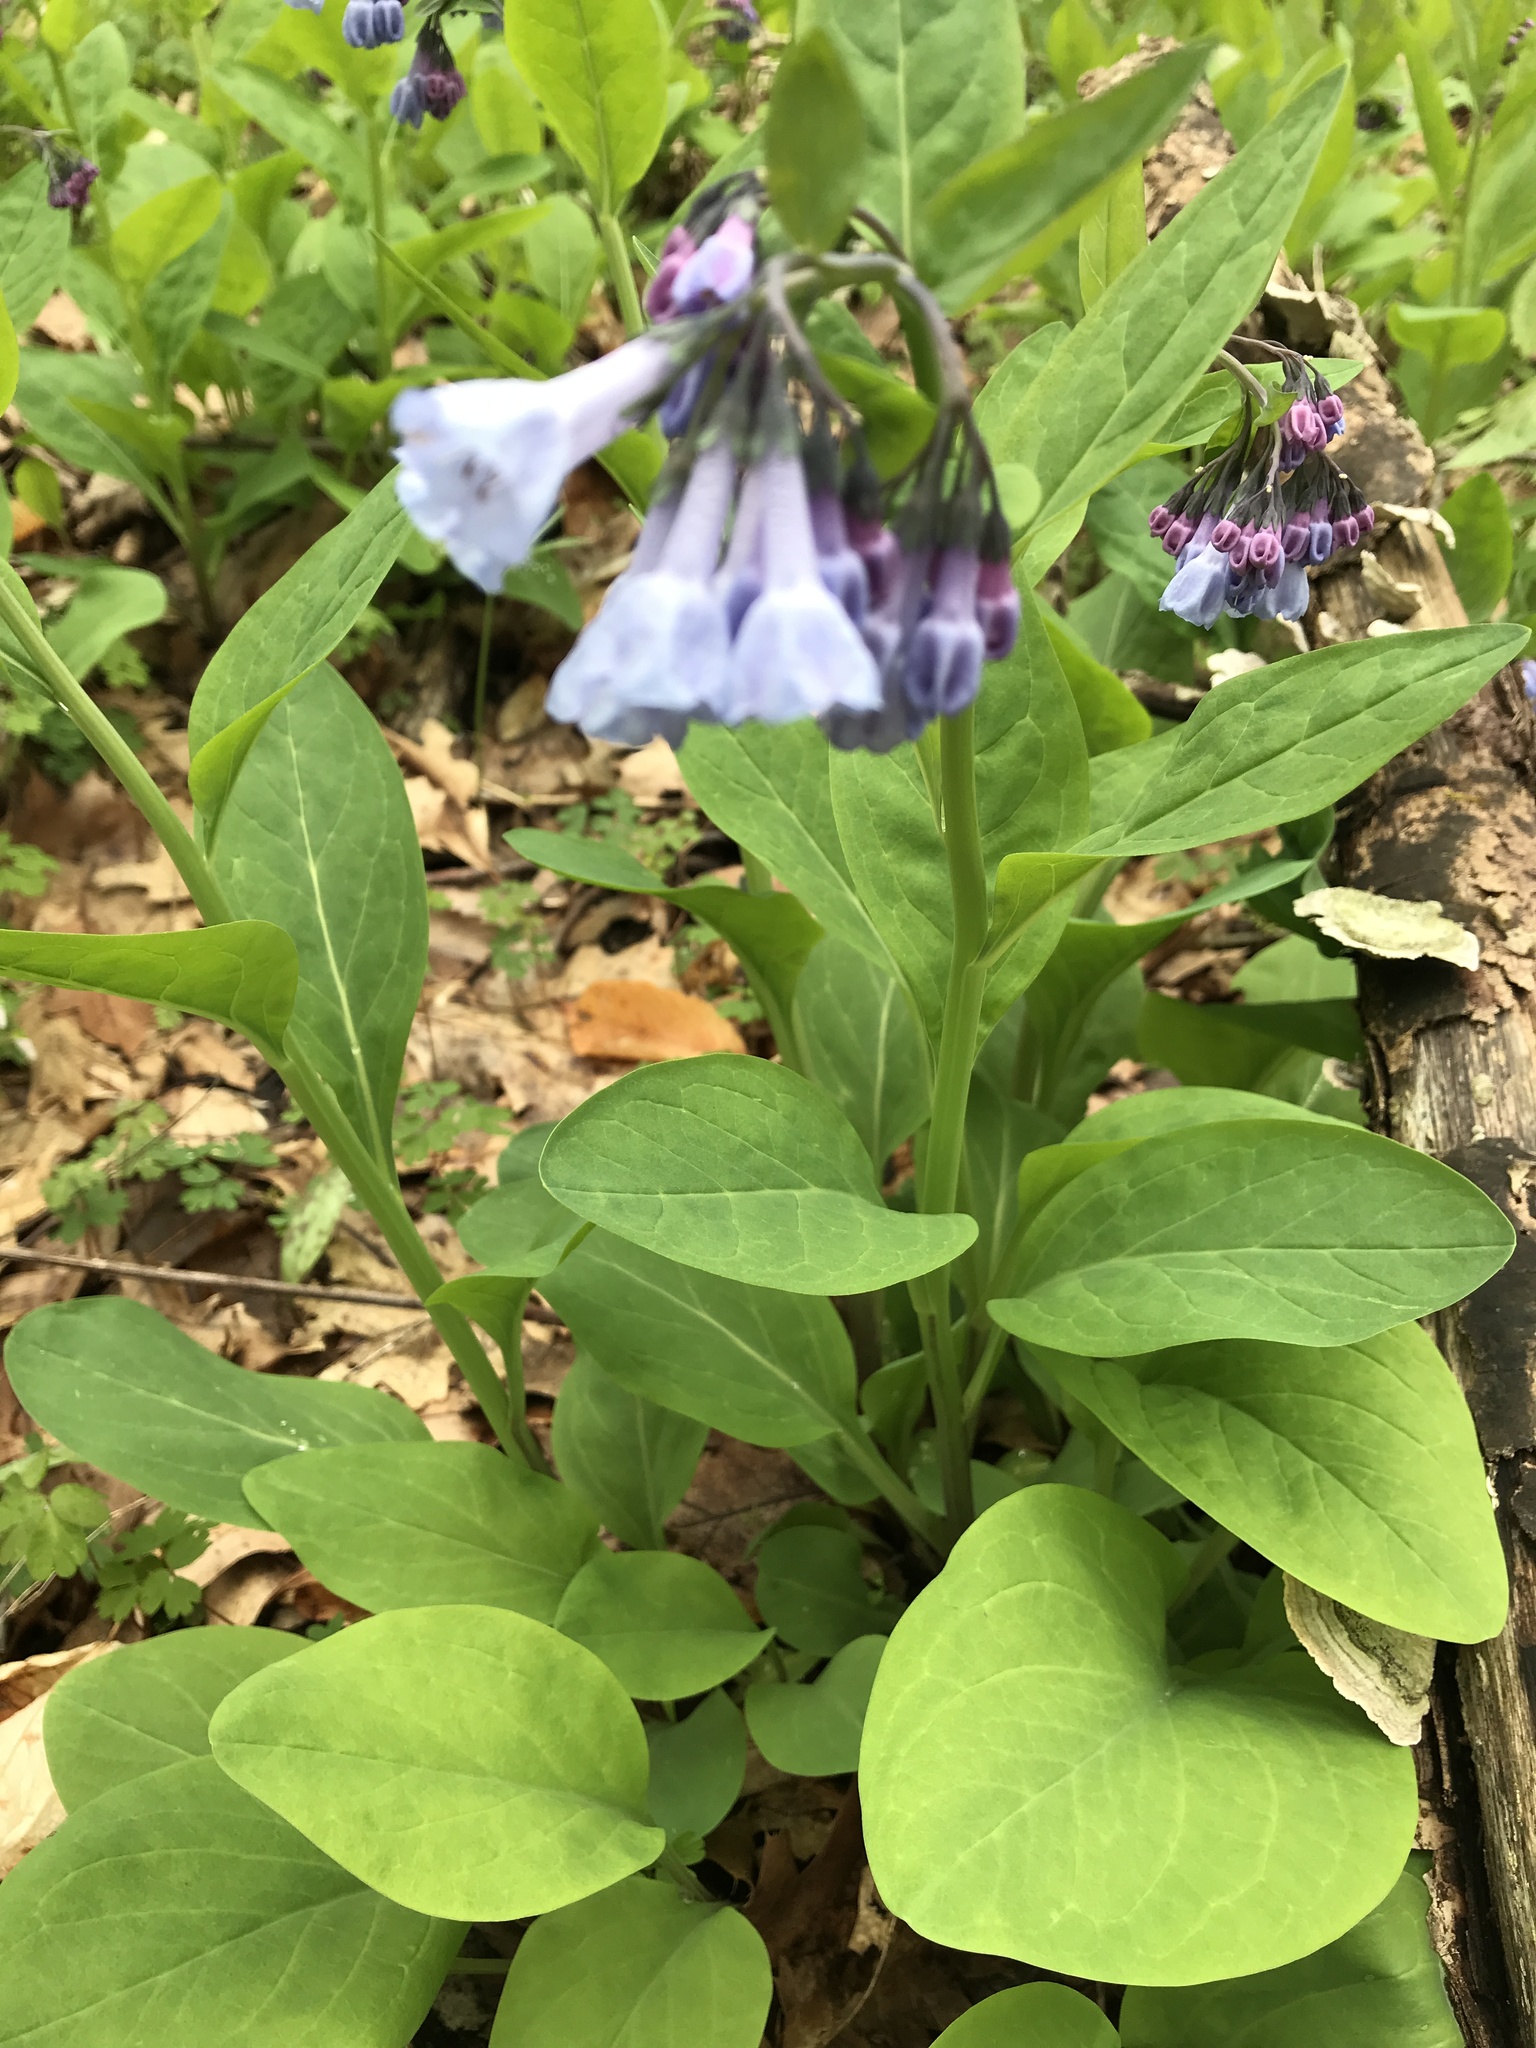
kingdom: Plantae
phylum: Tracheophyta
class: Magnoliopsida
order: Boraginales
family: Boraginaceae
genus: Mertensia
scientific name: Mertensia virginica
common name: Virginia bluebells
